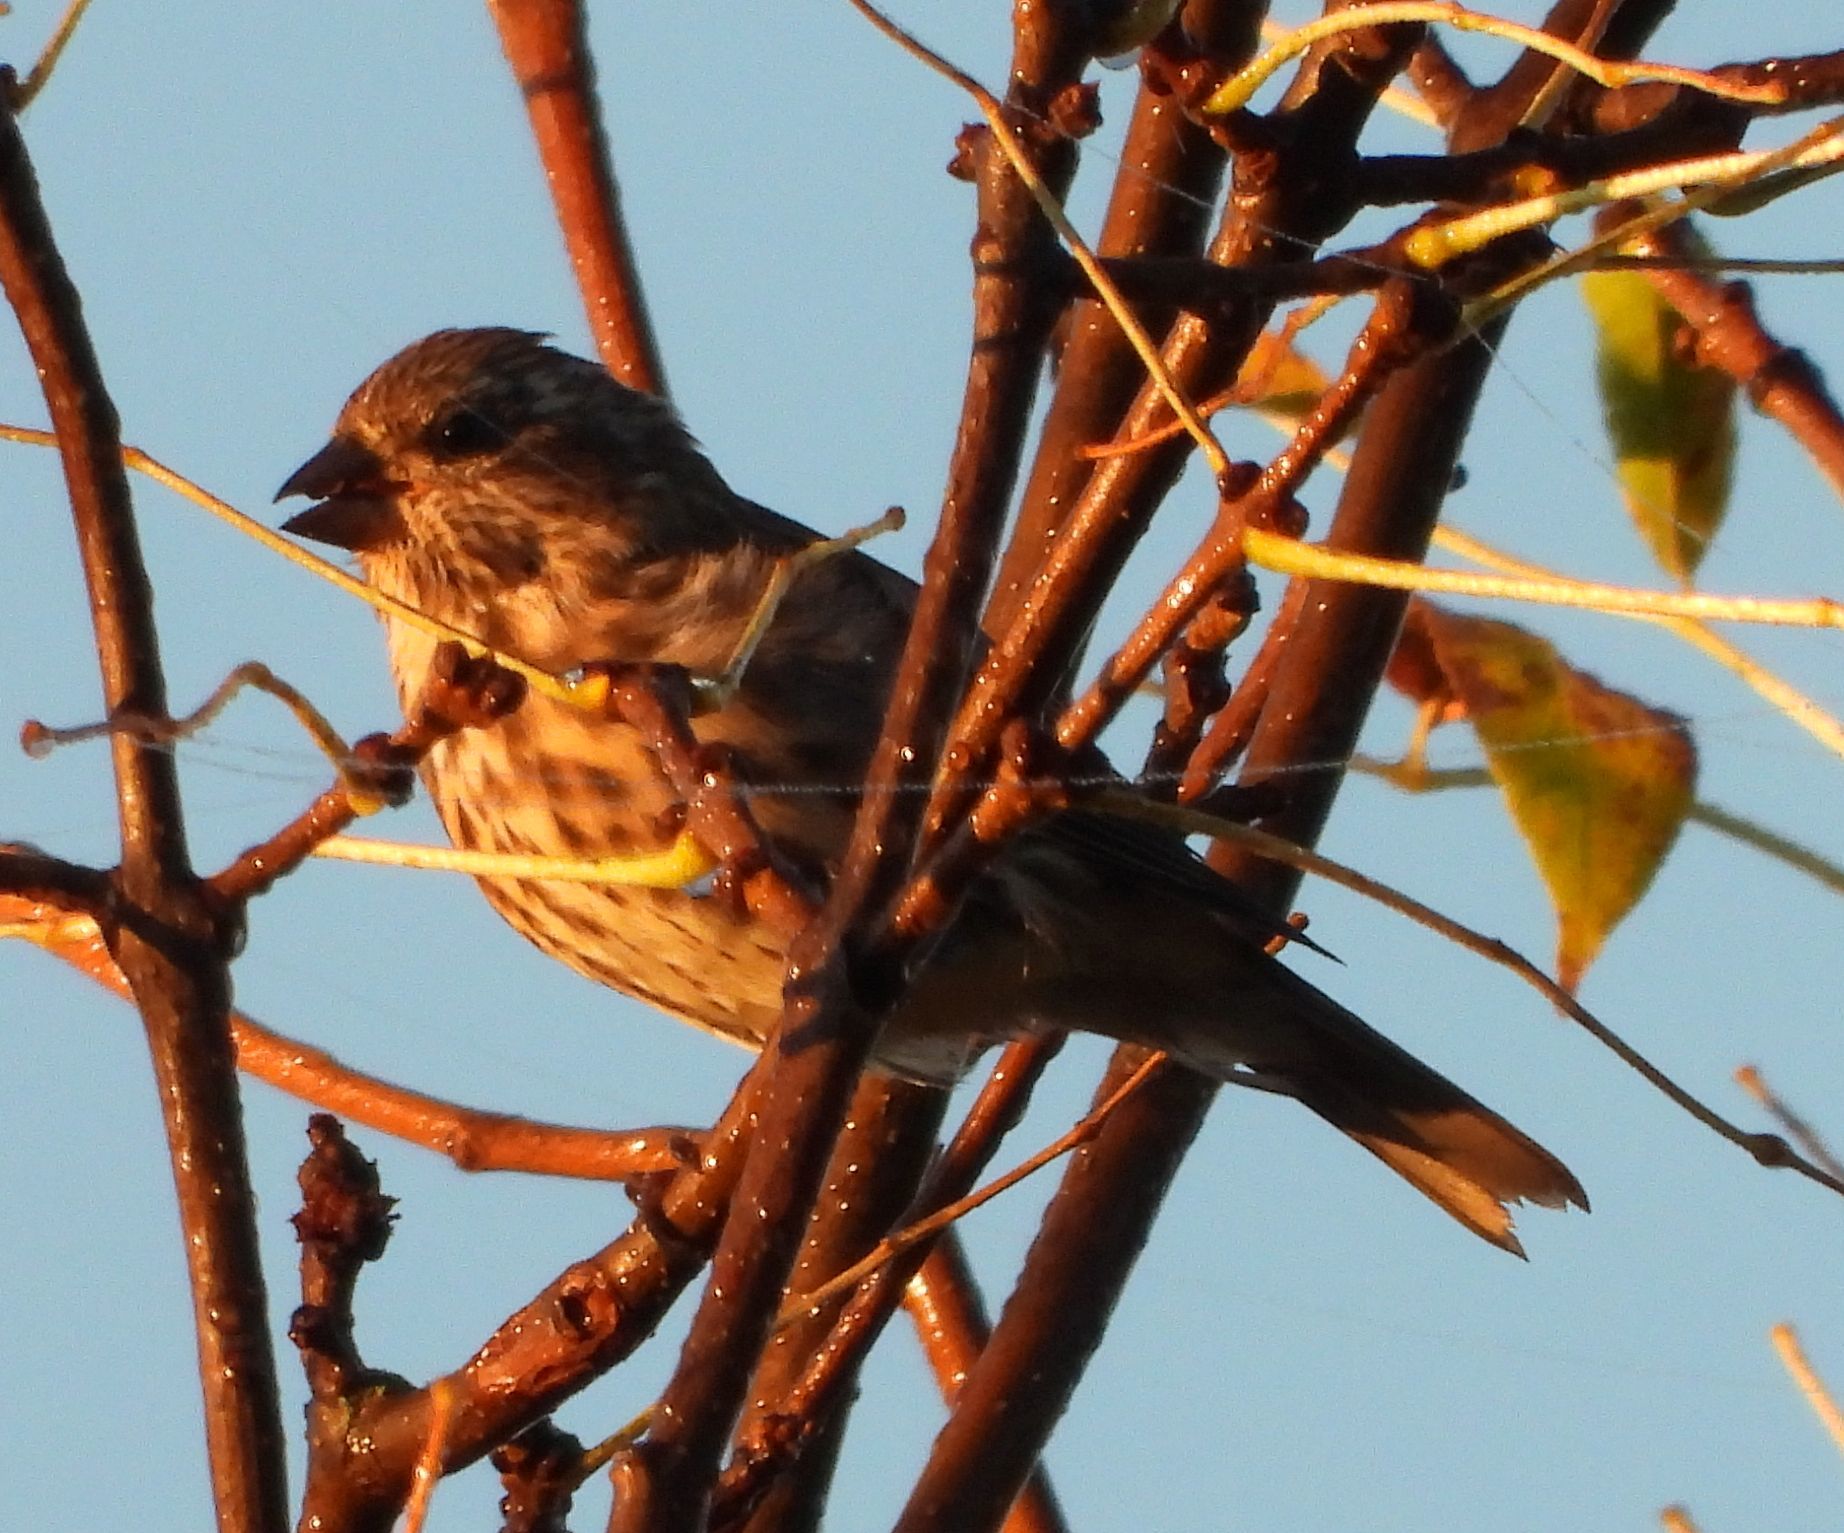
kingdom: Animalia
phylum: Chordata
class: Aves
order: Passeriformes
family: Fringillidae
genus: Haemorhous
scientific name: Haemorhous purpureus
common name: Purple finch
